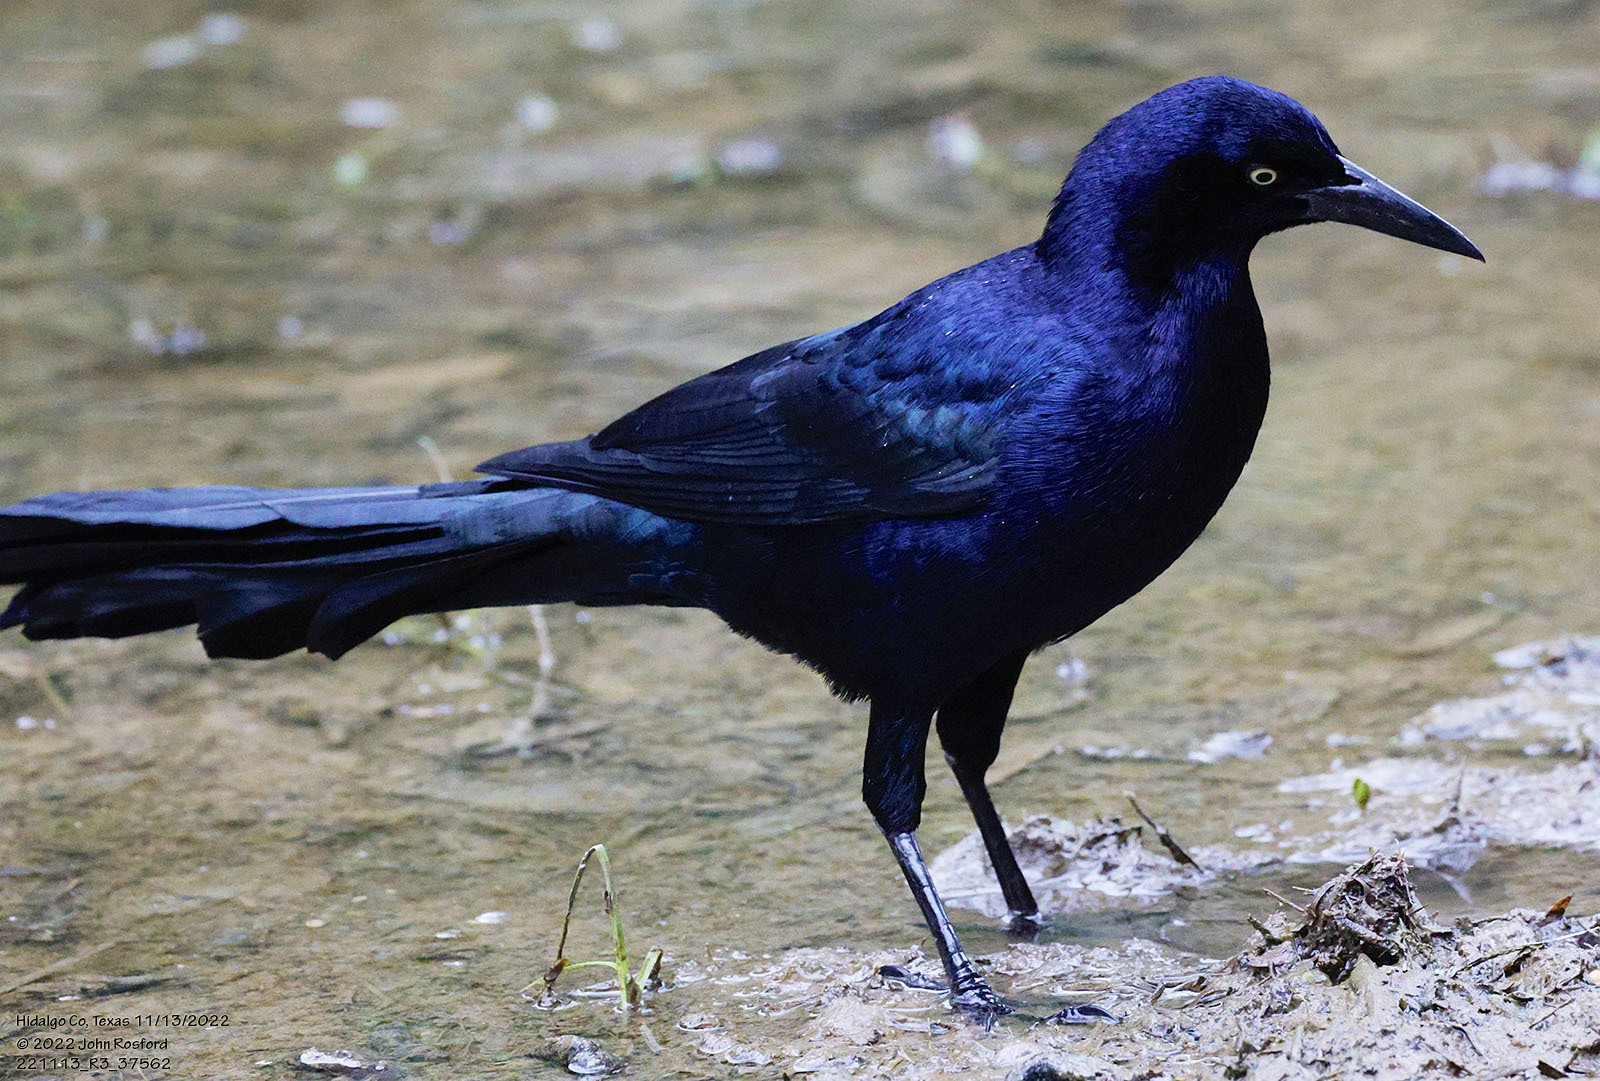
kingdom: Animalia
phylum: Chordata
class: Aves
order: Passeriformes
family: Icteridae
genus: Quiscalus
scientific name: Quiscalus mexicanus
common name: Great-tailed grackle
